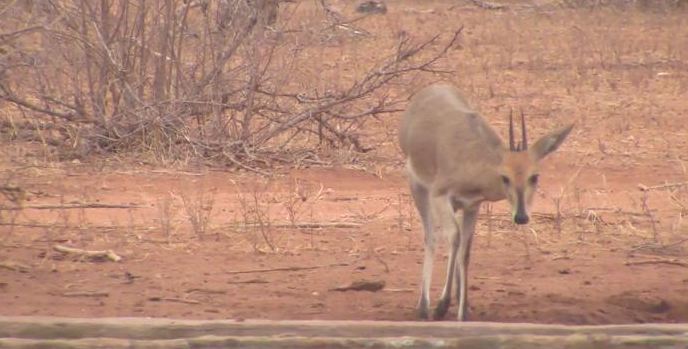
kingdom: Animalia
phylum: Chordata
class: Mammalia
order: Artiodactyla
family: Bovidae
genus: Sylvicapra
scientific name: Sylvicapra grimmia
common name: Bush duiker
